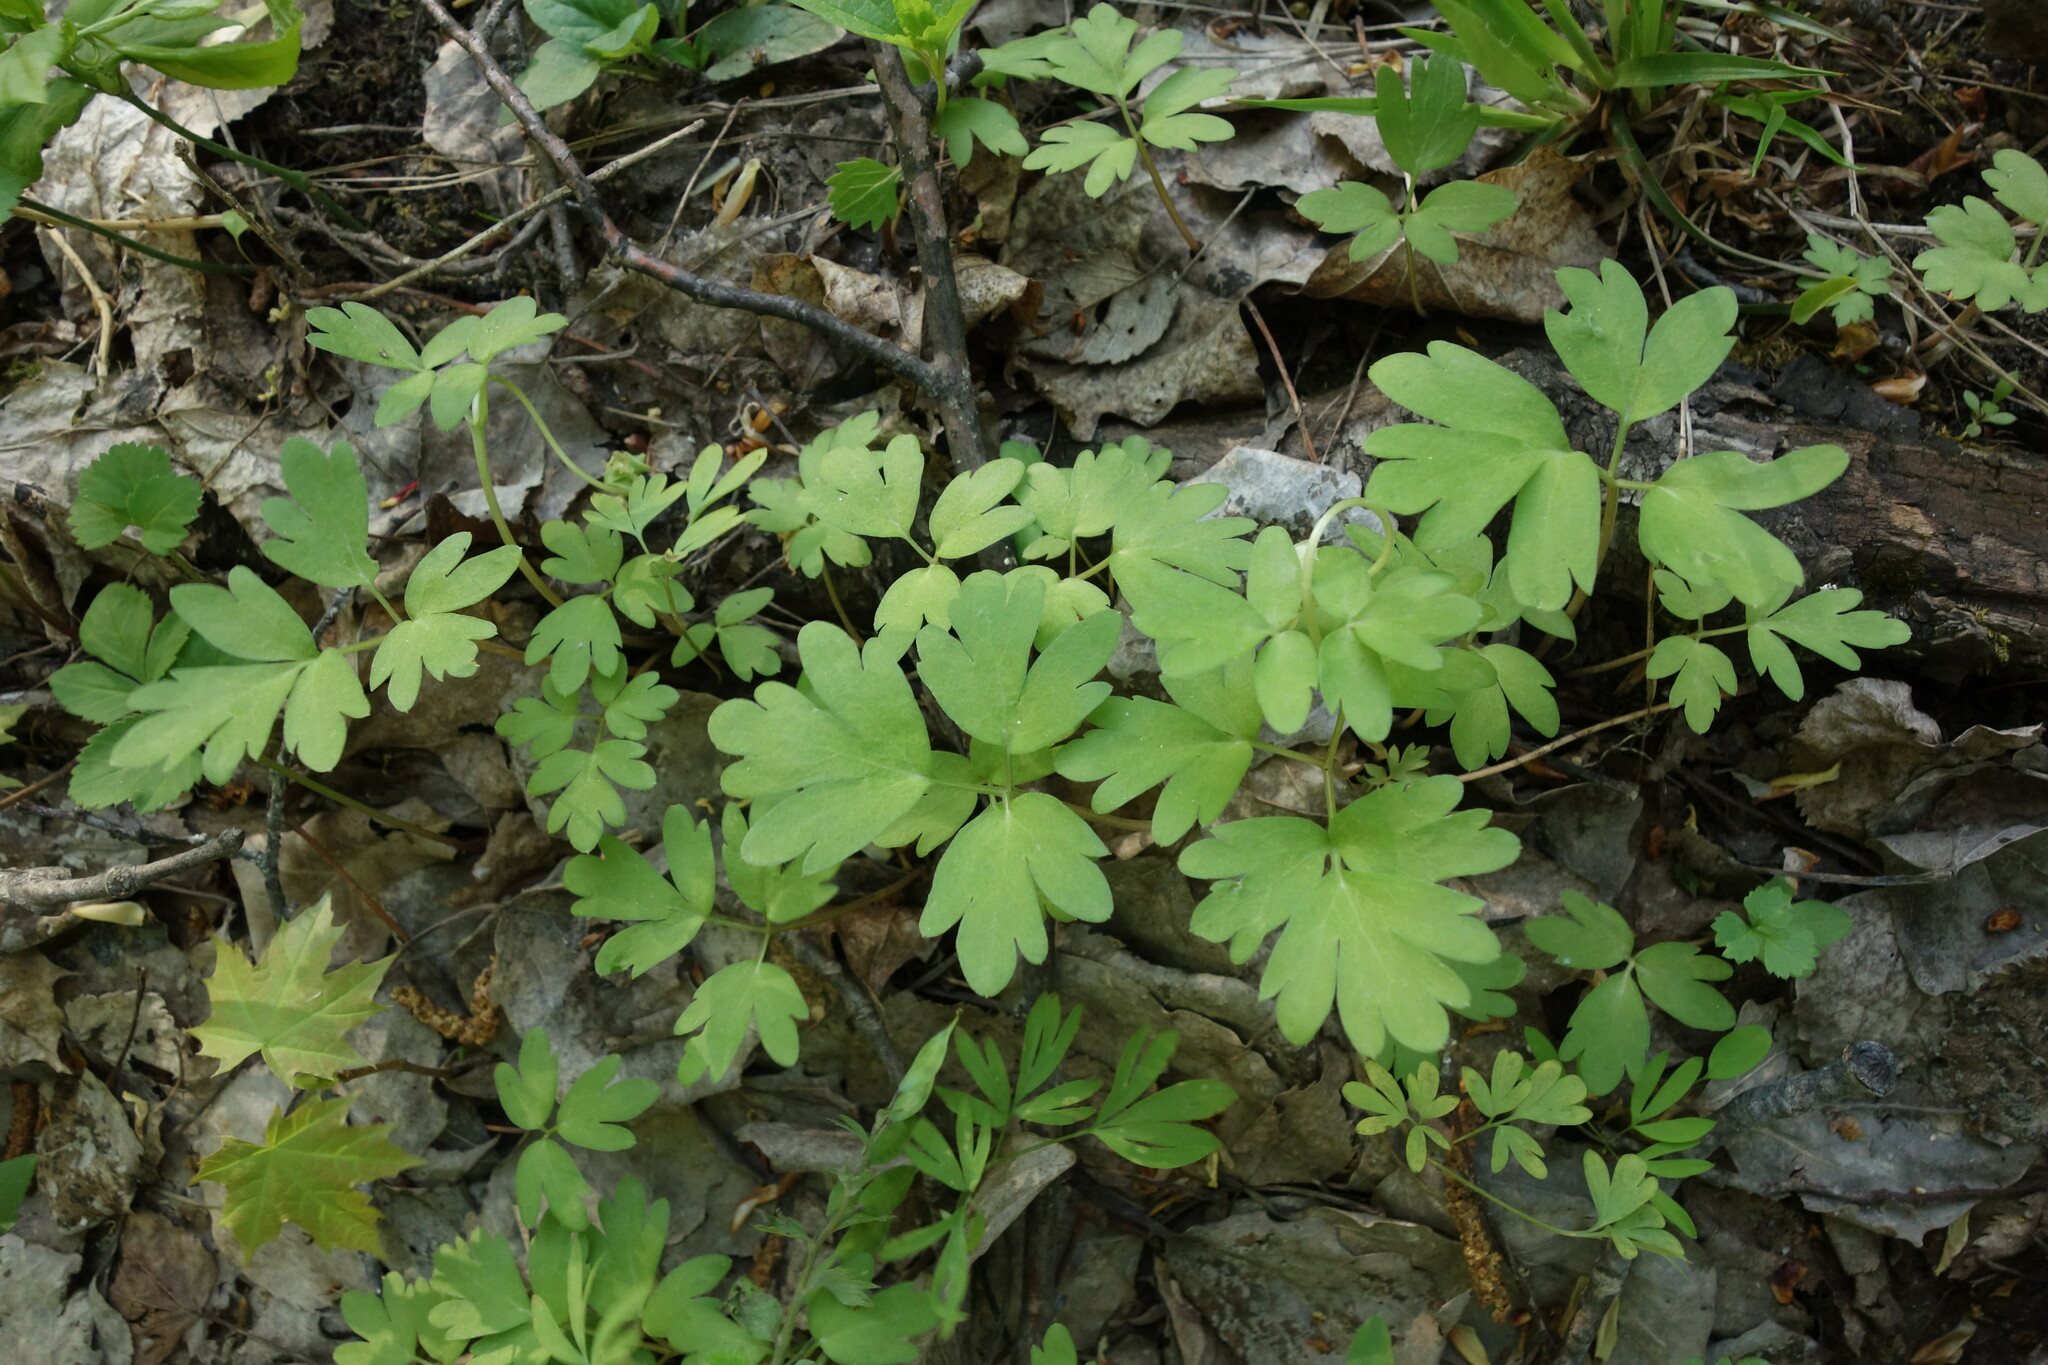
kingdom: Plantae
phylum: Tracheophyta
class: Magnoliopsida
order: Dipsacales
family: Viburnaceae
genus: Adoxa
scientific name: Adoxa moschatellina
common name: Moschatel
